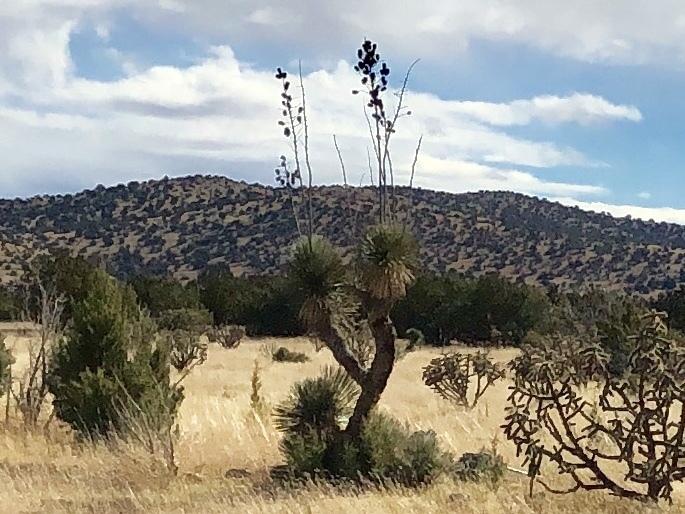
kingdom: Plantae
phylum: Tracheophyta
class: Liliopsida
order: Asparagales
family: Asparagaceae
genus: Yucca
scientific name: Yucca elata
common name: Palmella
